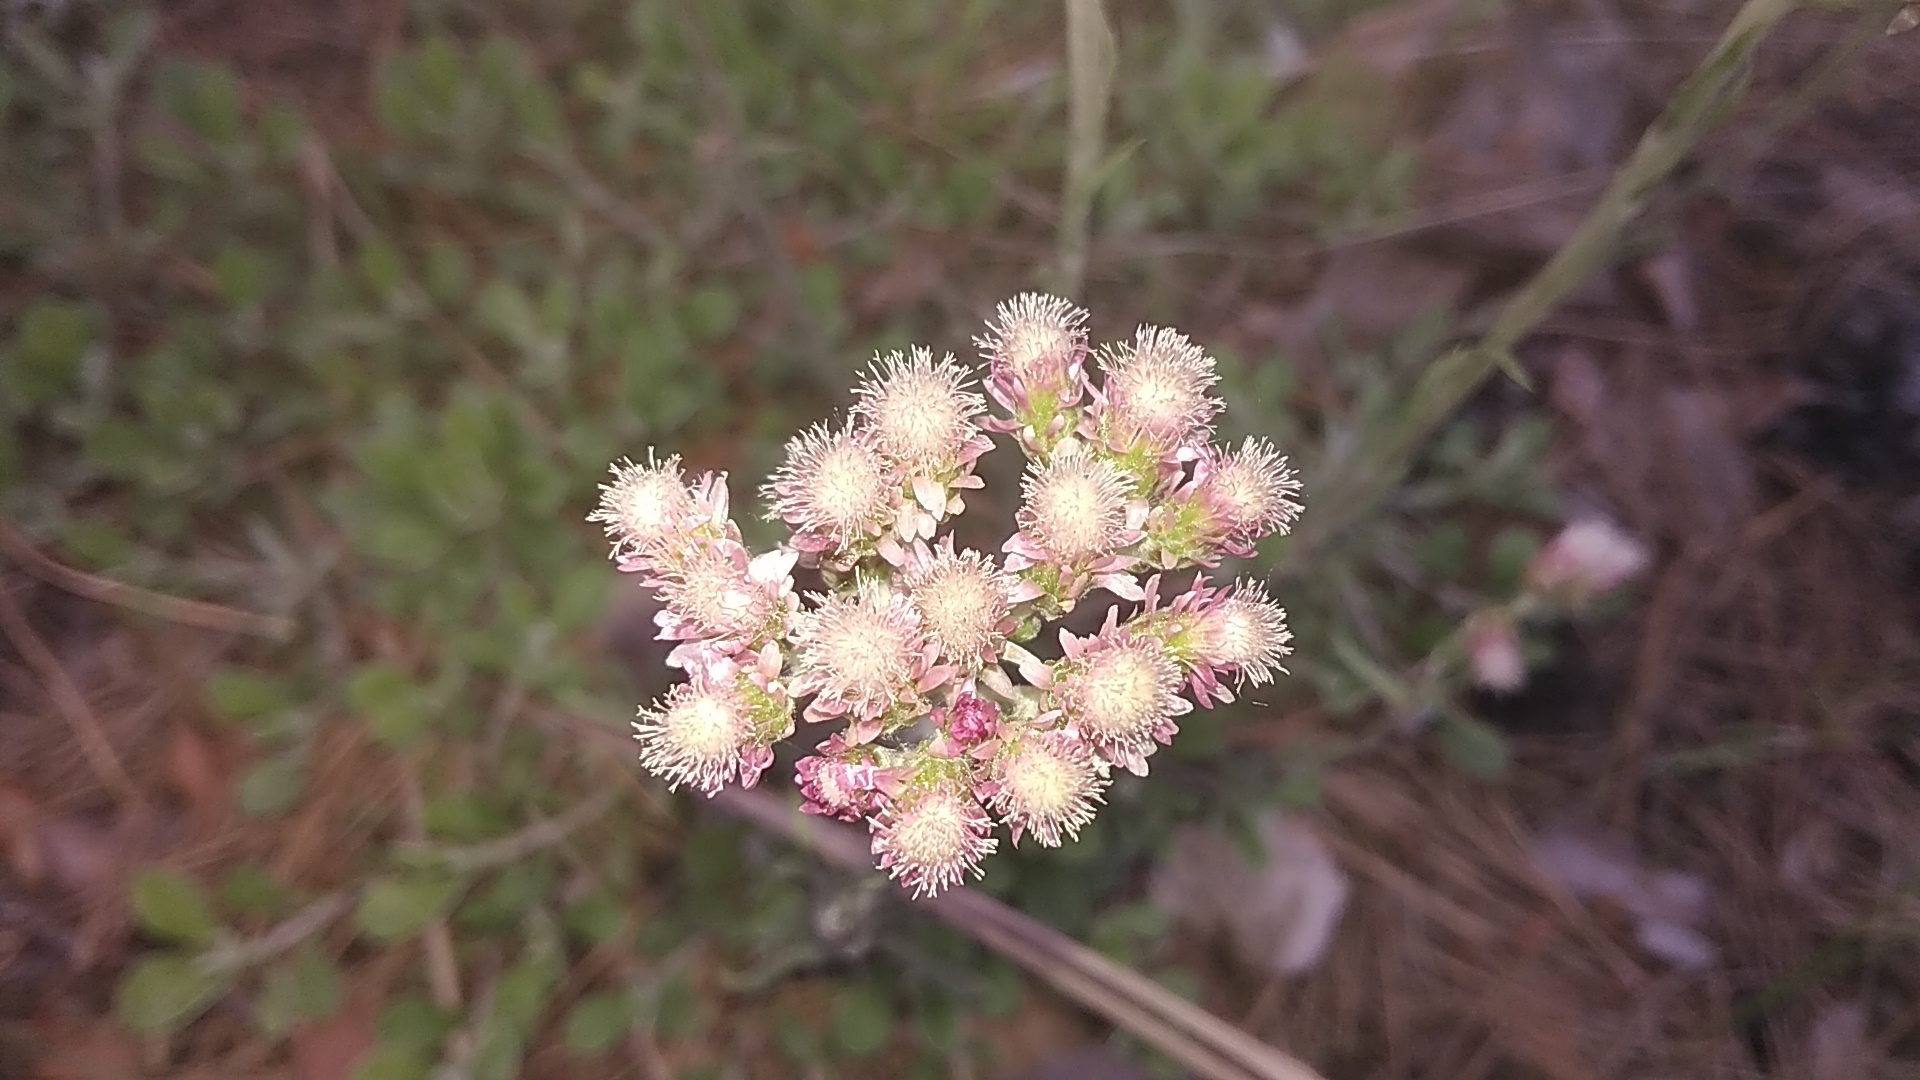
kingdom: Plantae
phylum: Tracheophyta
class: Magnoliopsida
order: Asterales
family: Asteraceae
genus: Antennaria
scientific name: Antennaria dioica
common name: Mountain everlasting
